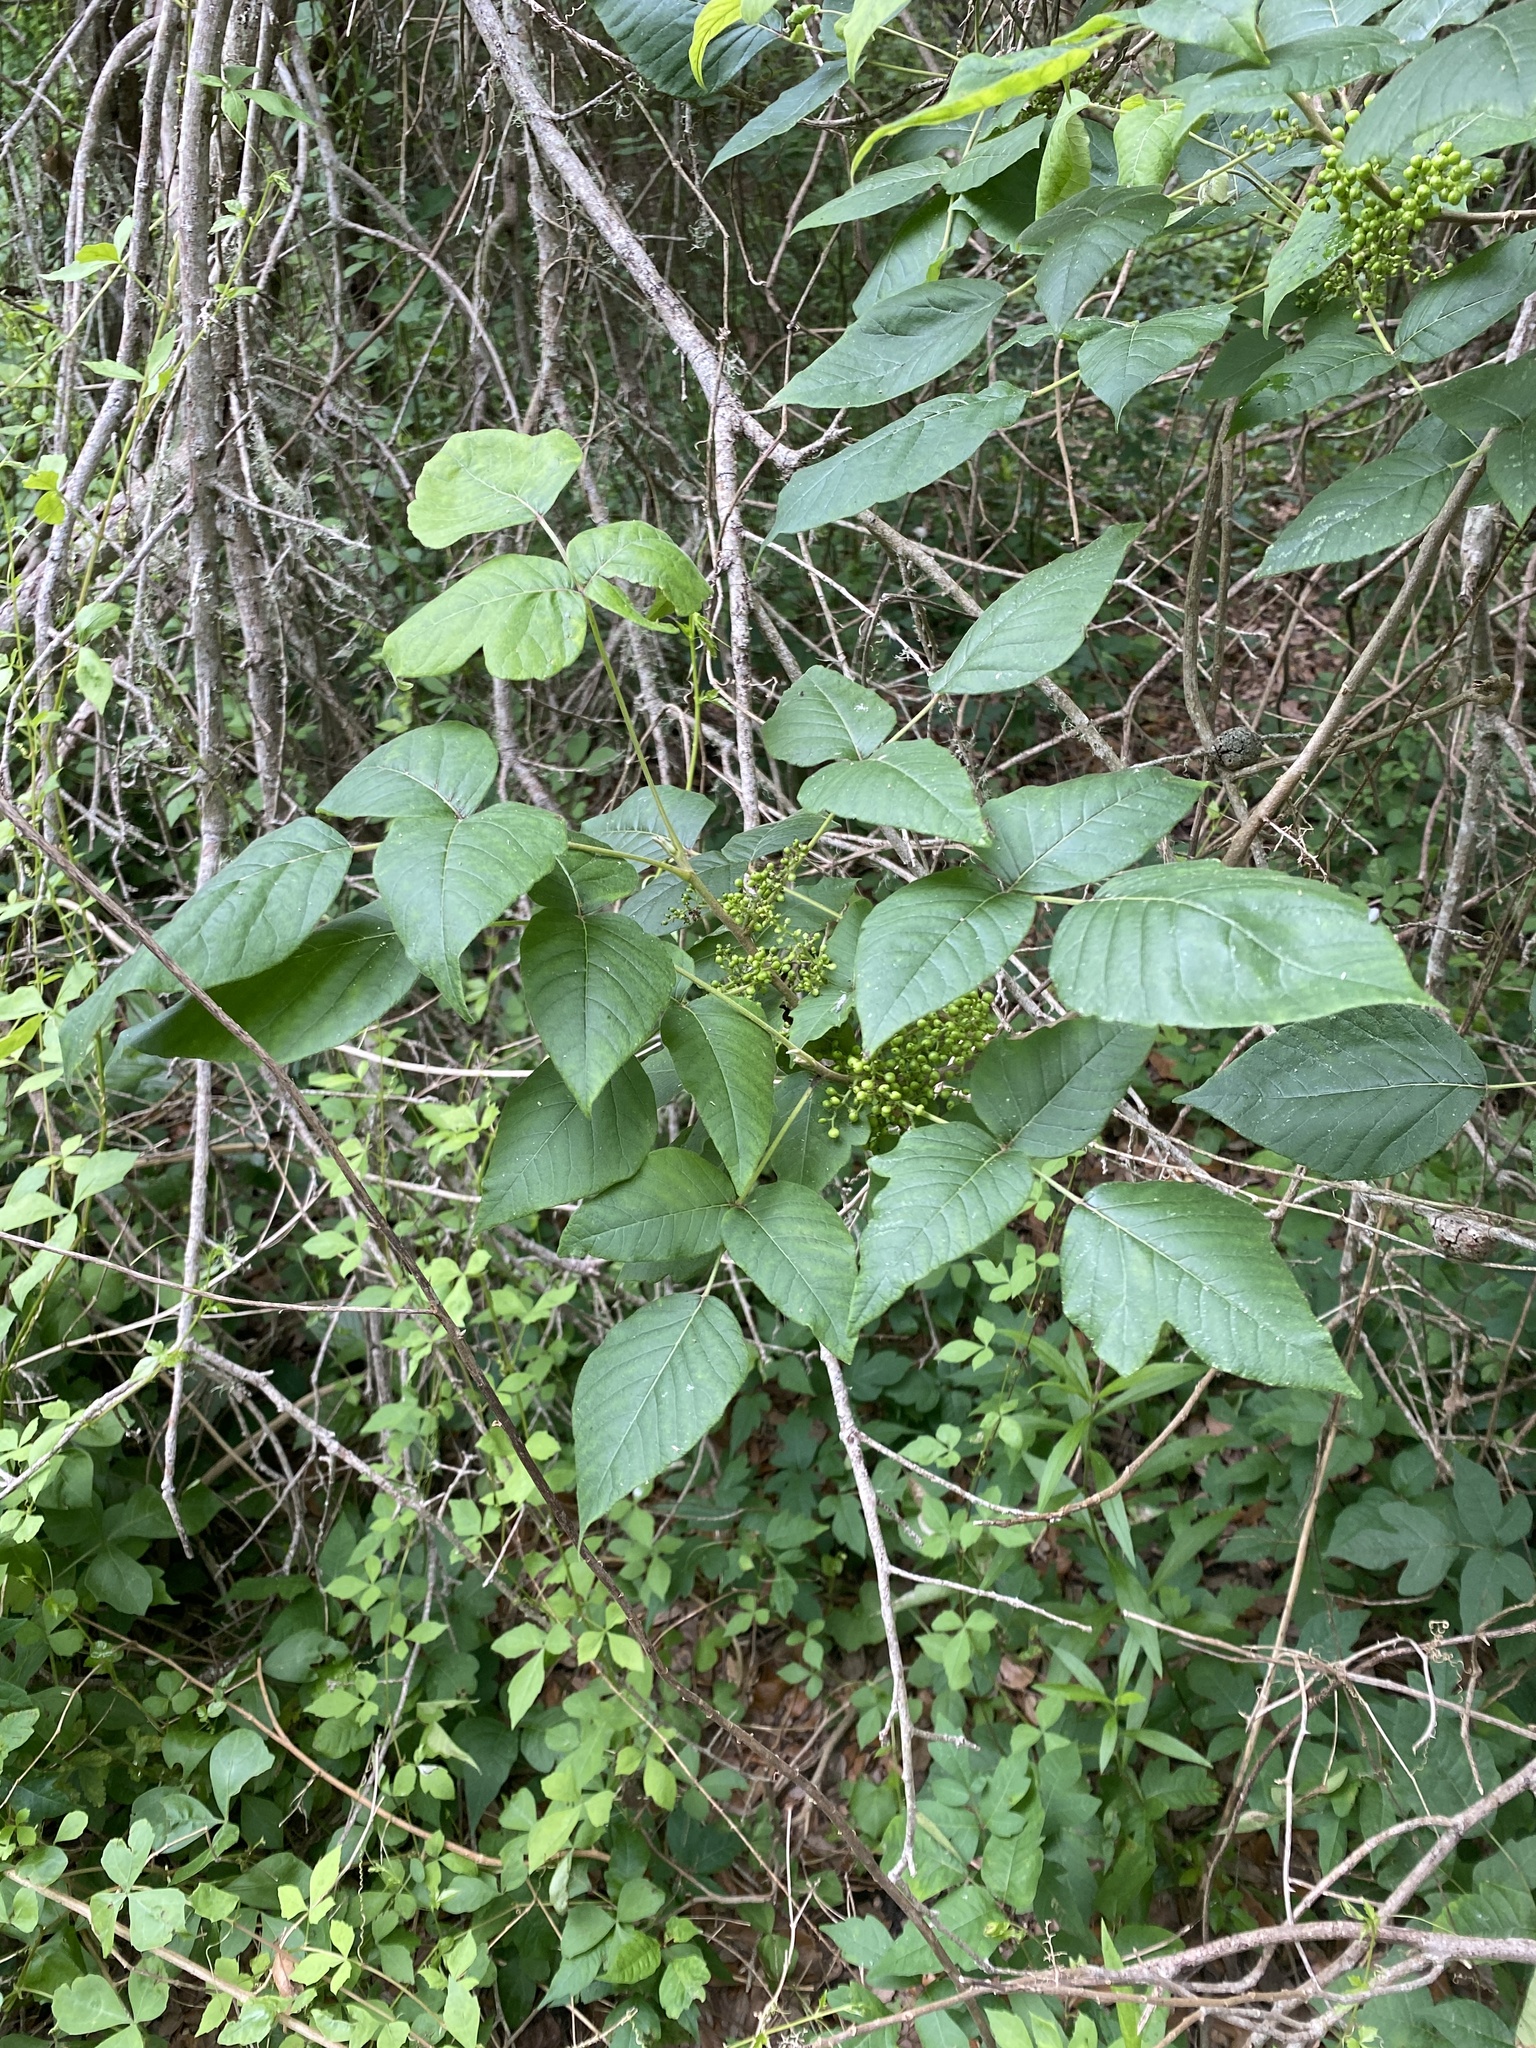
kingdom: Plantae
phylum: Tracheophyta
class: Magnoliopsida
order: Sapindales
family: Anacardiaceae
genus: Toxicodendron
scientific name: Toxicodendron radicans
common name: Poison ivy
